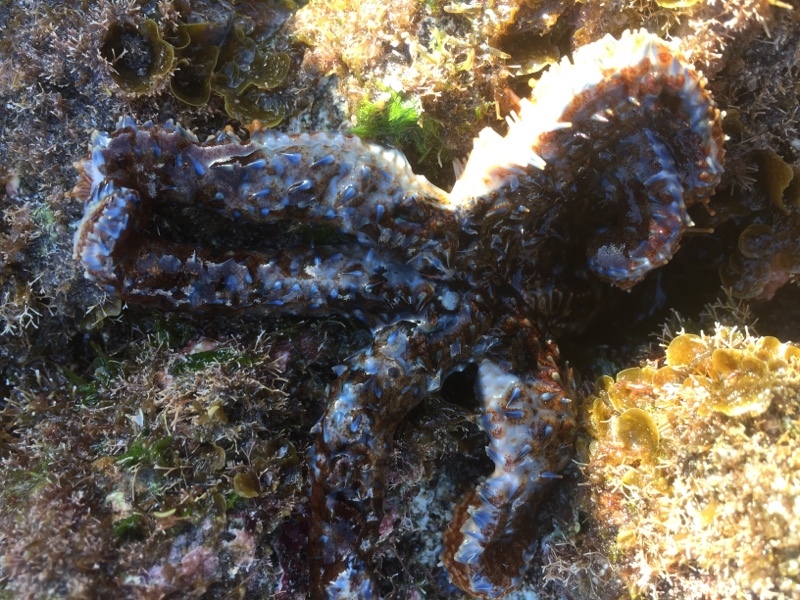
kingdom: Animalia
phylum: Echinodermata
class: Asteroidea
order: Forcipulatida
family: Asteriidae
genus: Coscinasterias
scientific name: Coscinasterias tenuispina
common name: Blue spiny starfish
